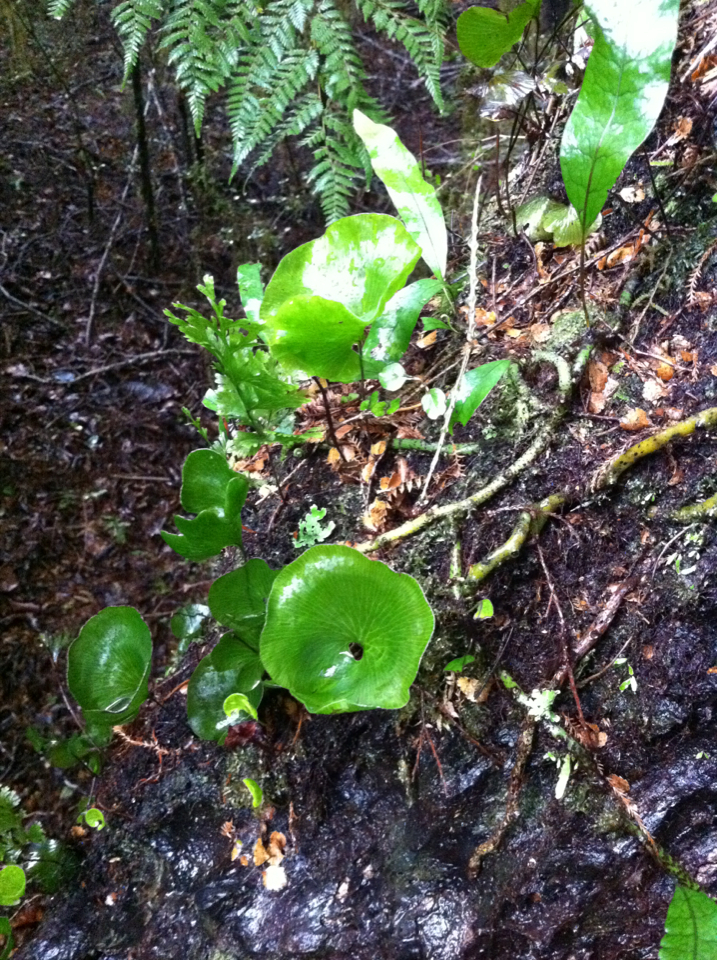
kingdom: Plantae
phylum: Tracheophyta
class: Polypodiopsida
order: Hymenophyllales
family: Hymenophyllaceae
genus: Hymenophyllum
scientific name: Hymenophyllum nephrophyllum
